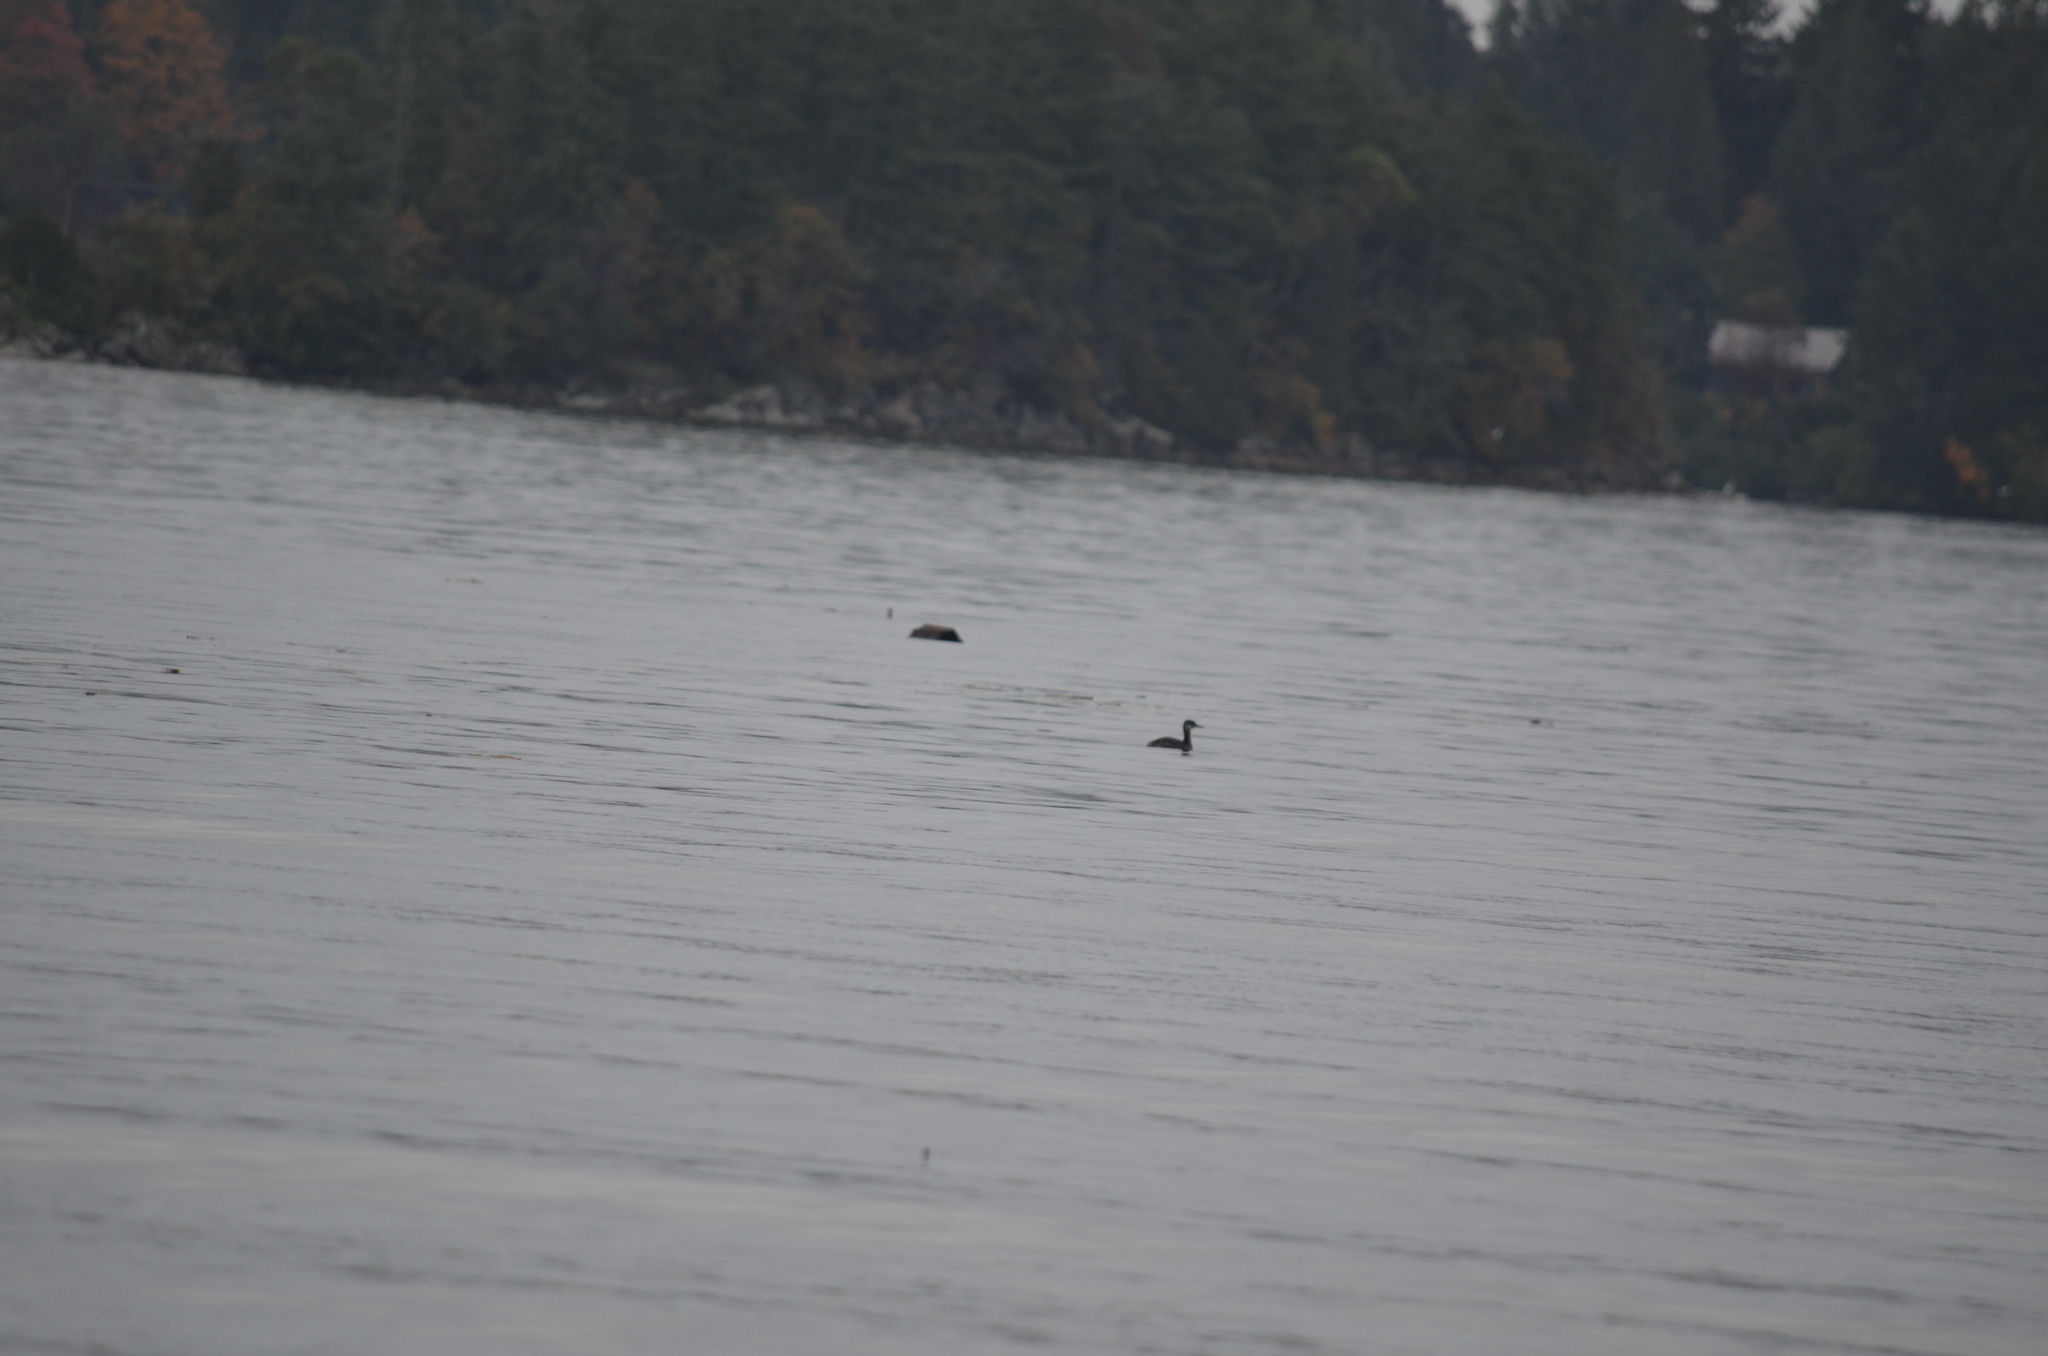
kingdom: Animalia
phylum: Chordata
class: Aves
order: Podicipediformes
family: Podicipedidae
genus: Podiceps
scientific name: Podiceps grisegena
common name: Red-necked grebe
